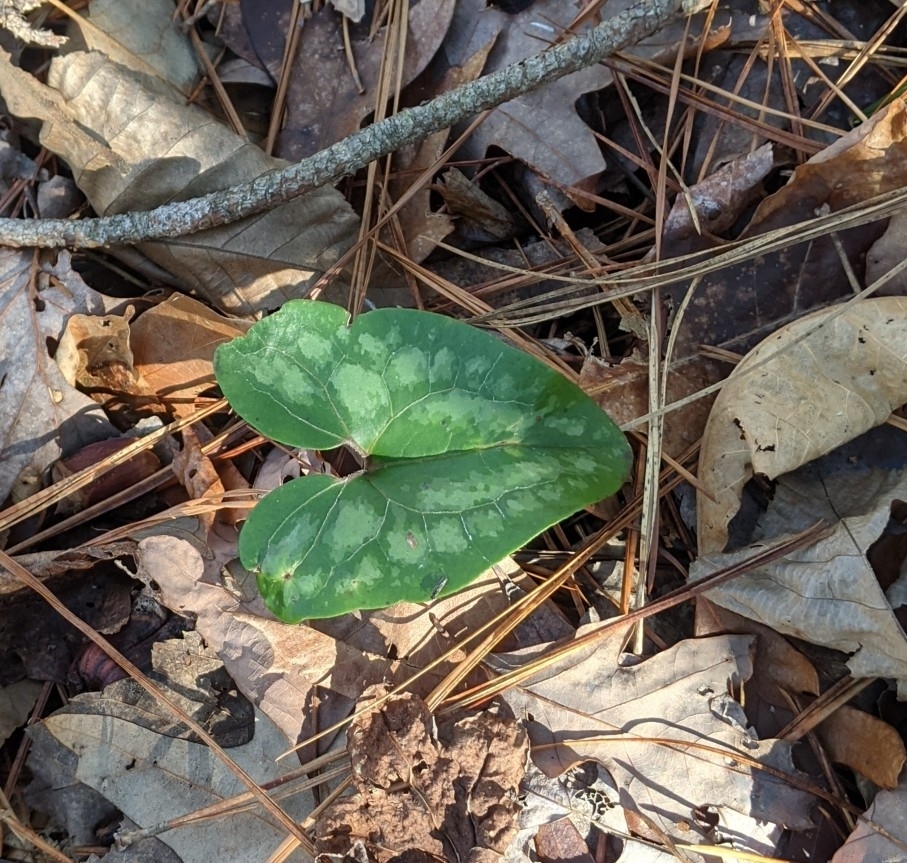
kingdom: Plantae
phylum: Tracheophyta
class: Magnoliopsida
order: Piperales
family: Aristolochiaceae
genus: Hexastylis
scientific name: Hexastylis arifolia
